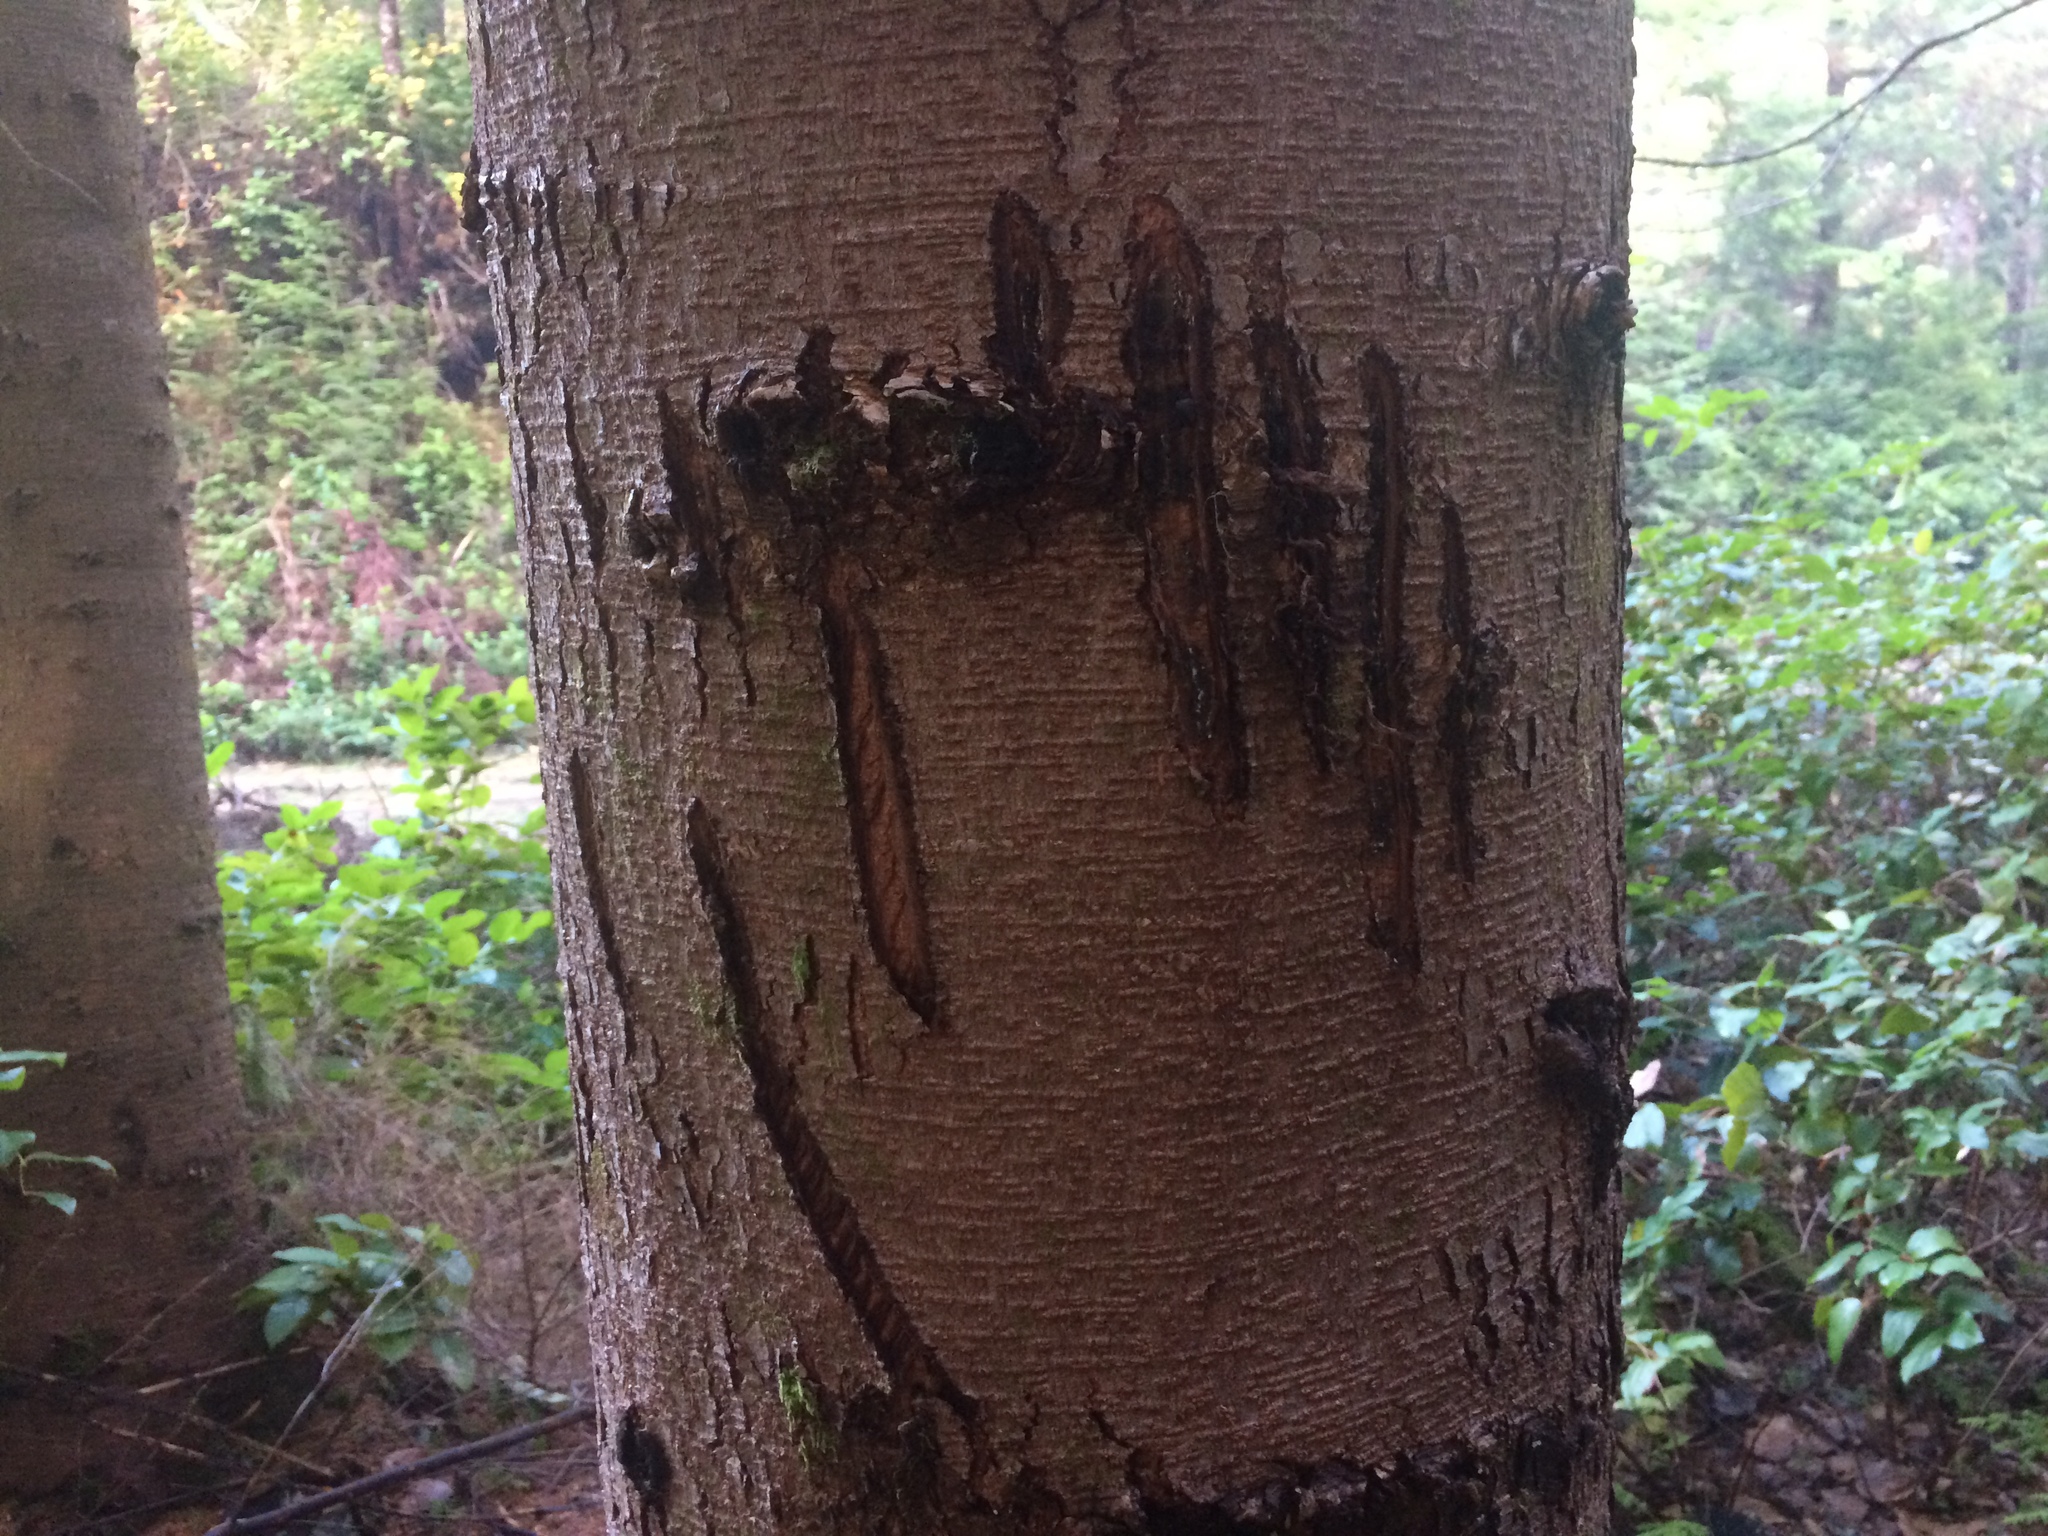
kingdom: Animalia
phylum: Chordata
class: Mammalia
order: Carnivora
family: Ursidae
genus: Ursus
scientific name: Ursus americanus
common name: American black bear
